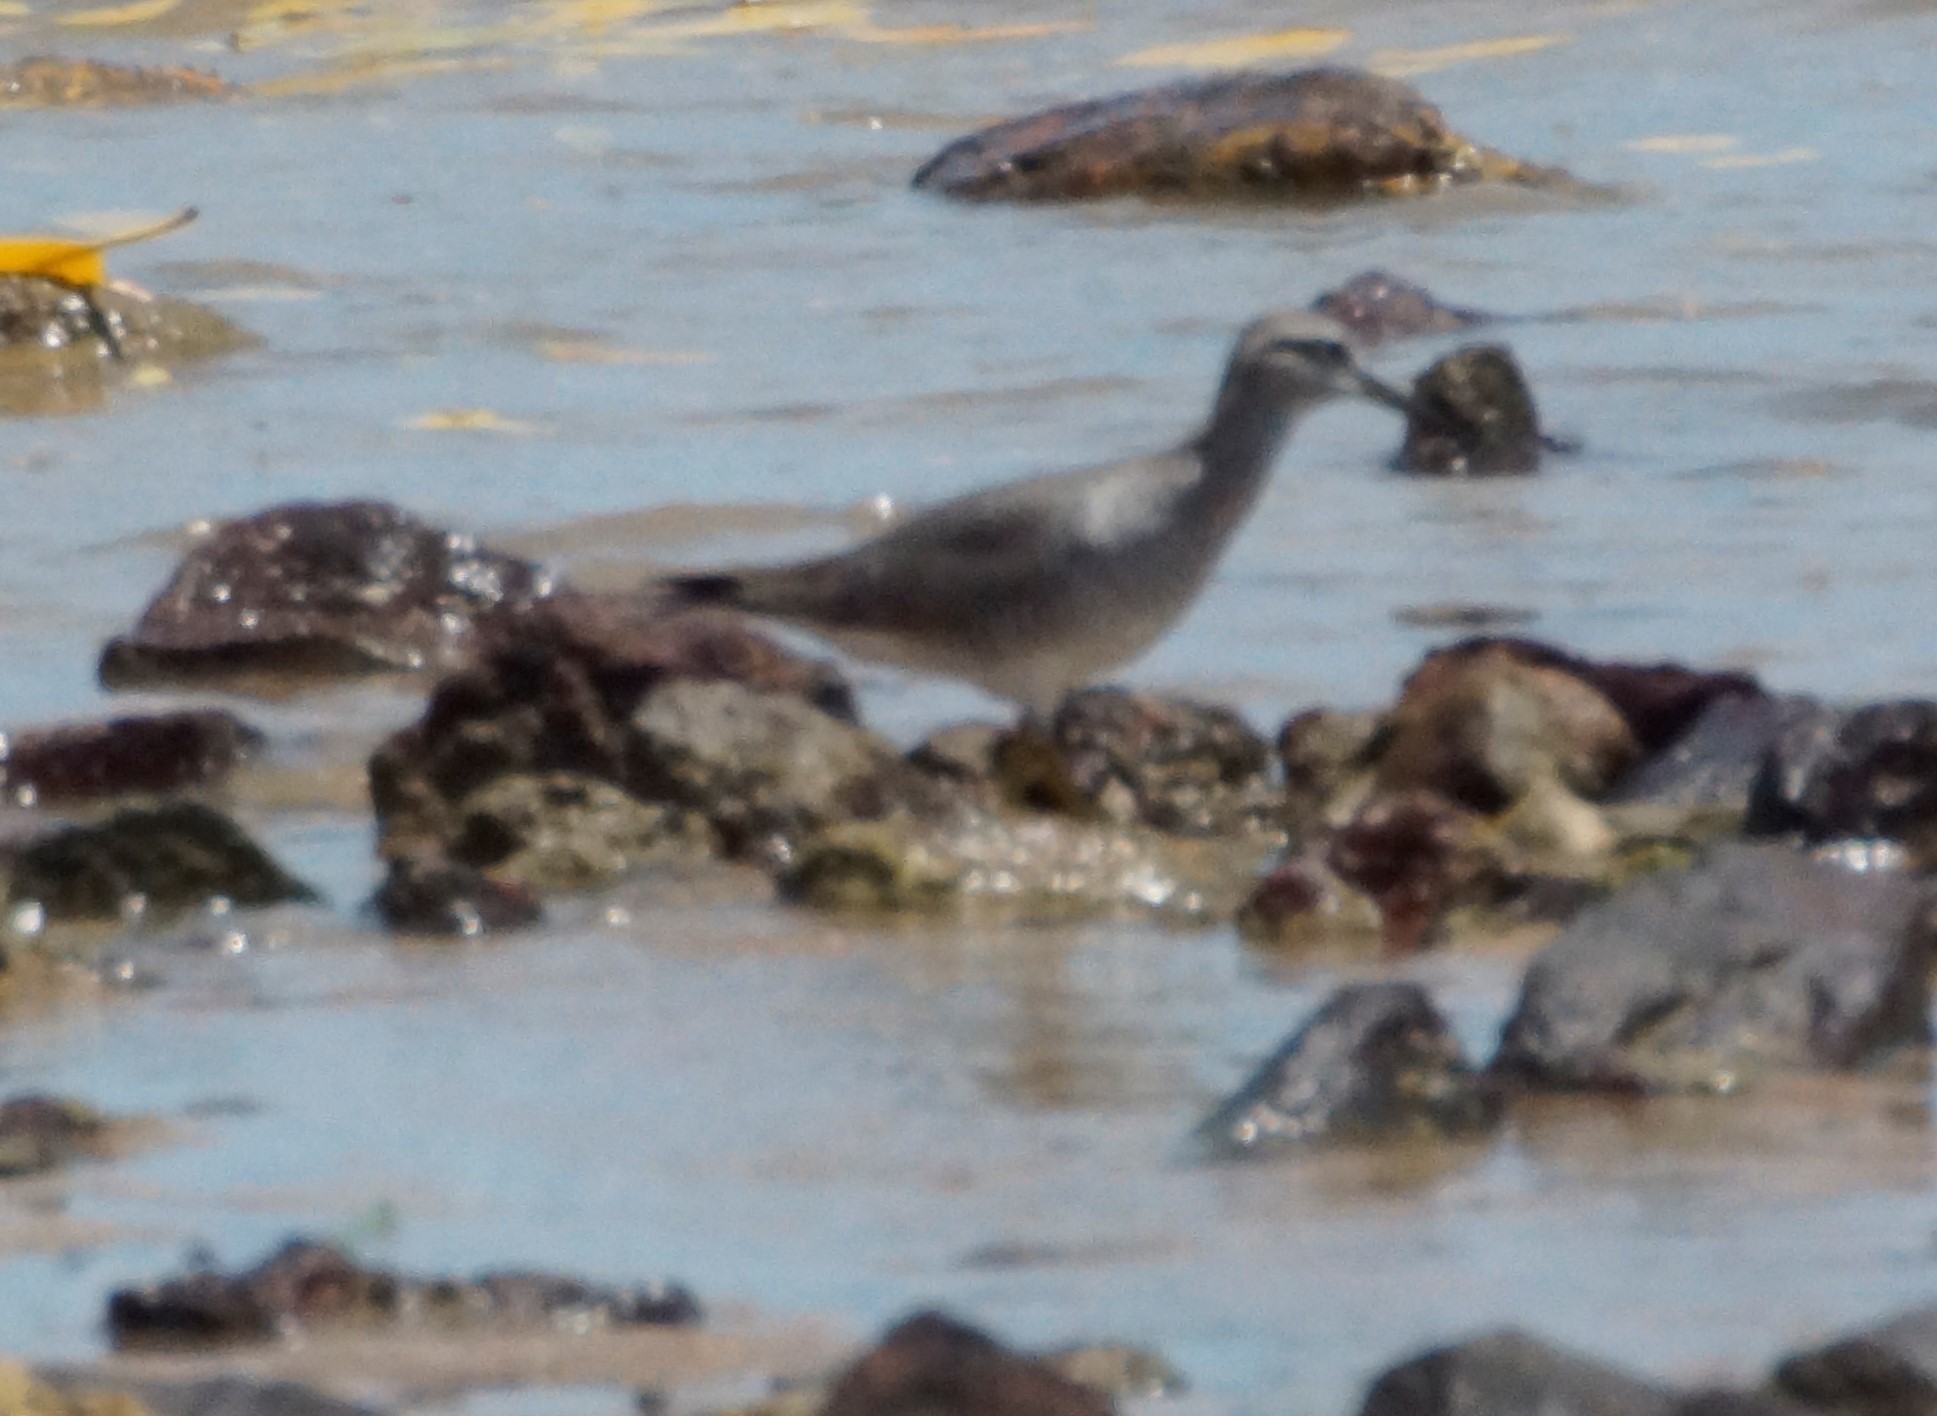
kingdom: Animalia
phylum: Chordata
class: Aves
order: Charadriiformes
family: Scolopacidae
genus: Tringa
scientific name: Tringa brevipes
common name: Grey-tailed tattler
